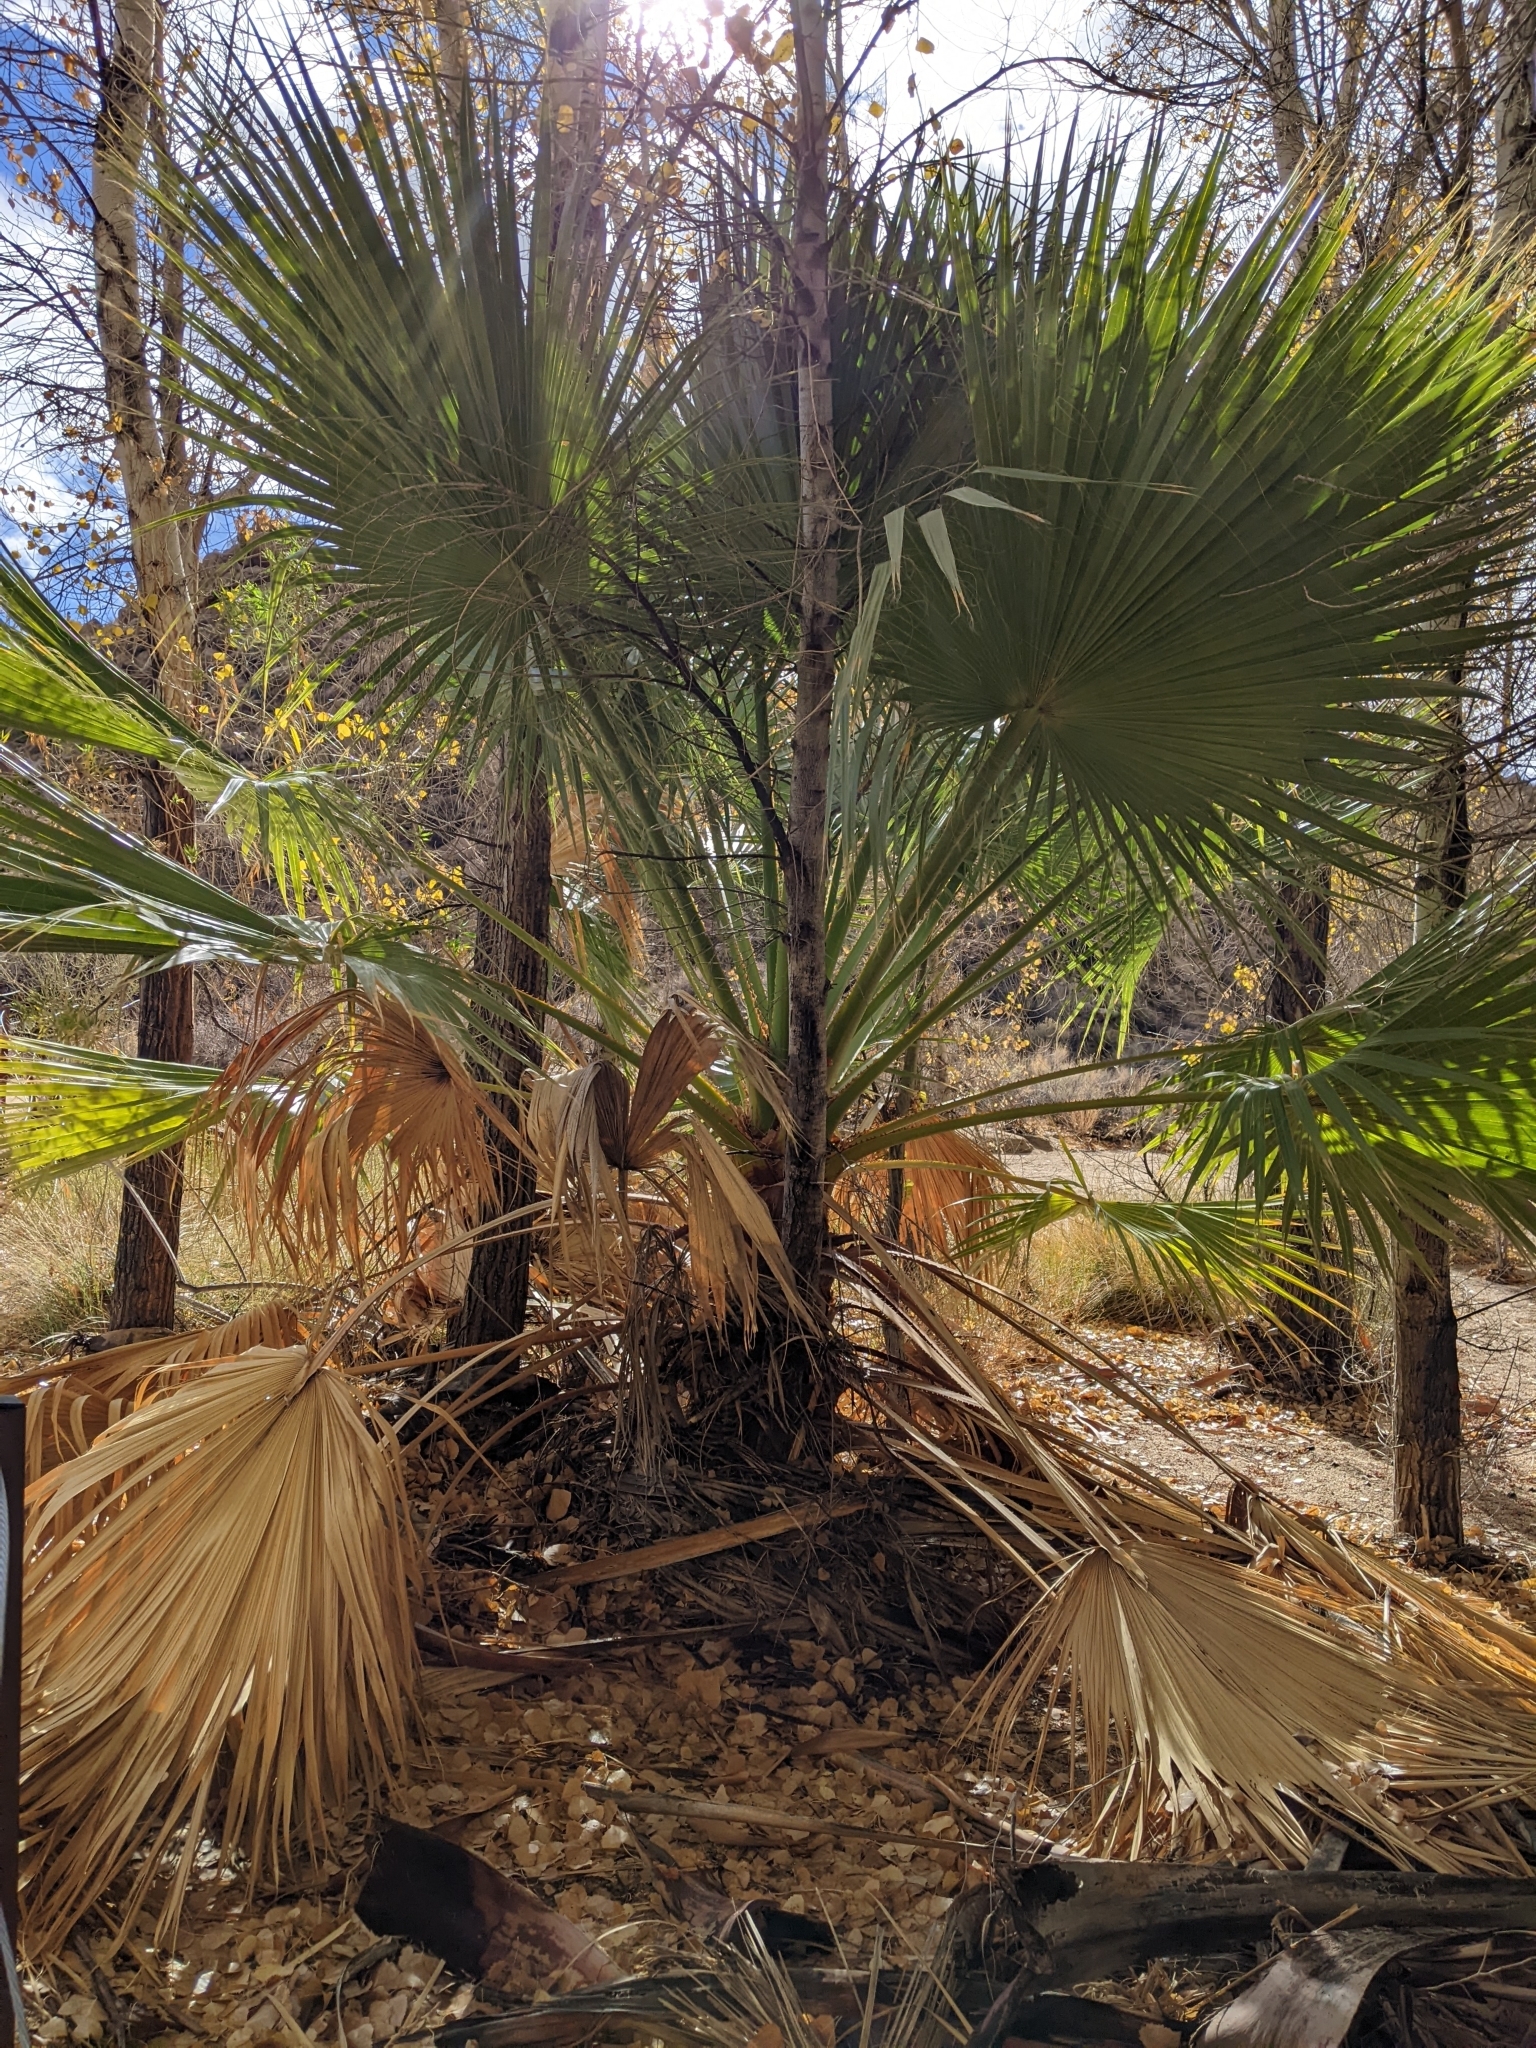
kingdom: Plantae
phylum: Tracheophyta
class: Liliopsida
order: Arecales
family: Arecaceae
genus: Washingtonia
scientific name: Washingtonia filifera
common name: California fan palm
